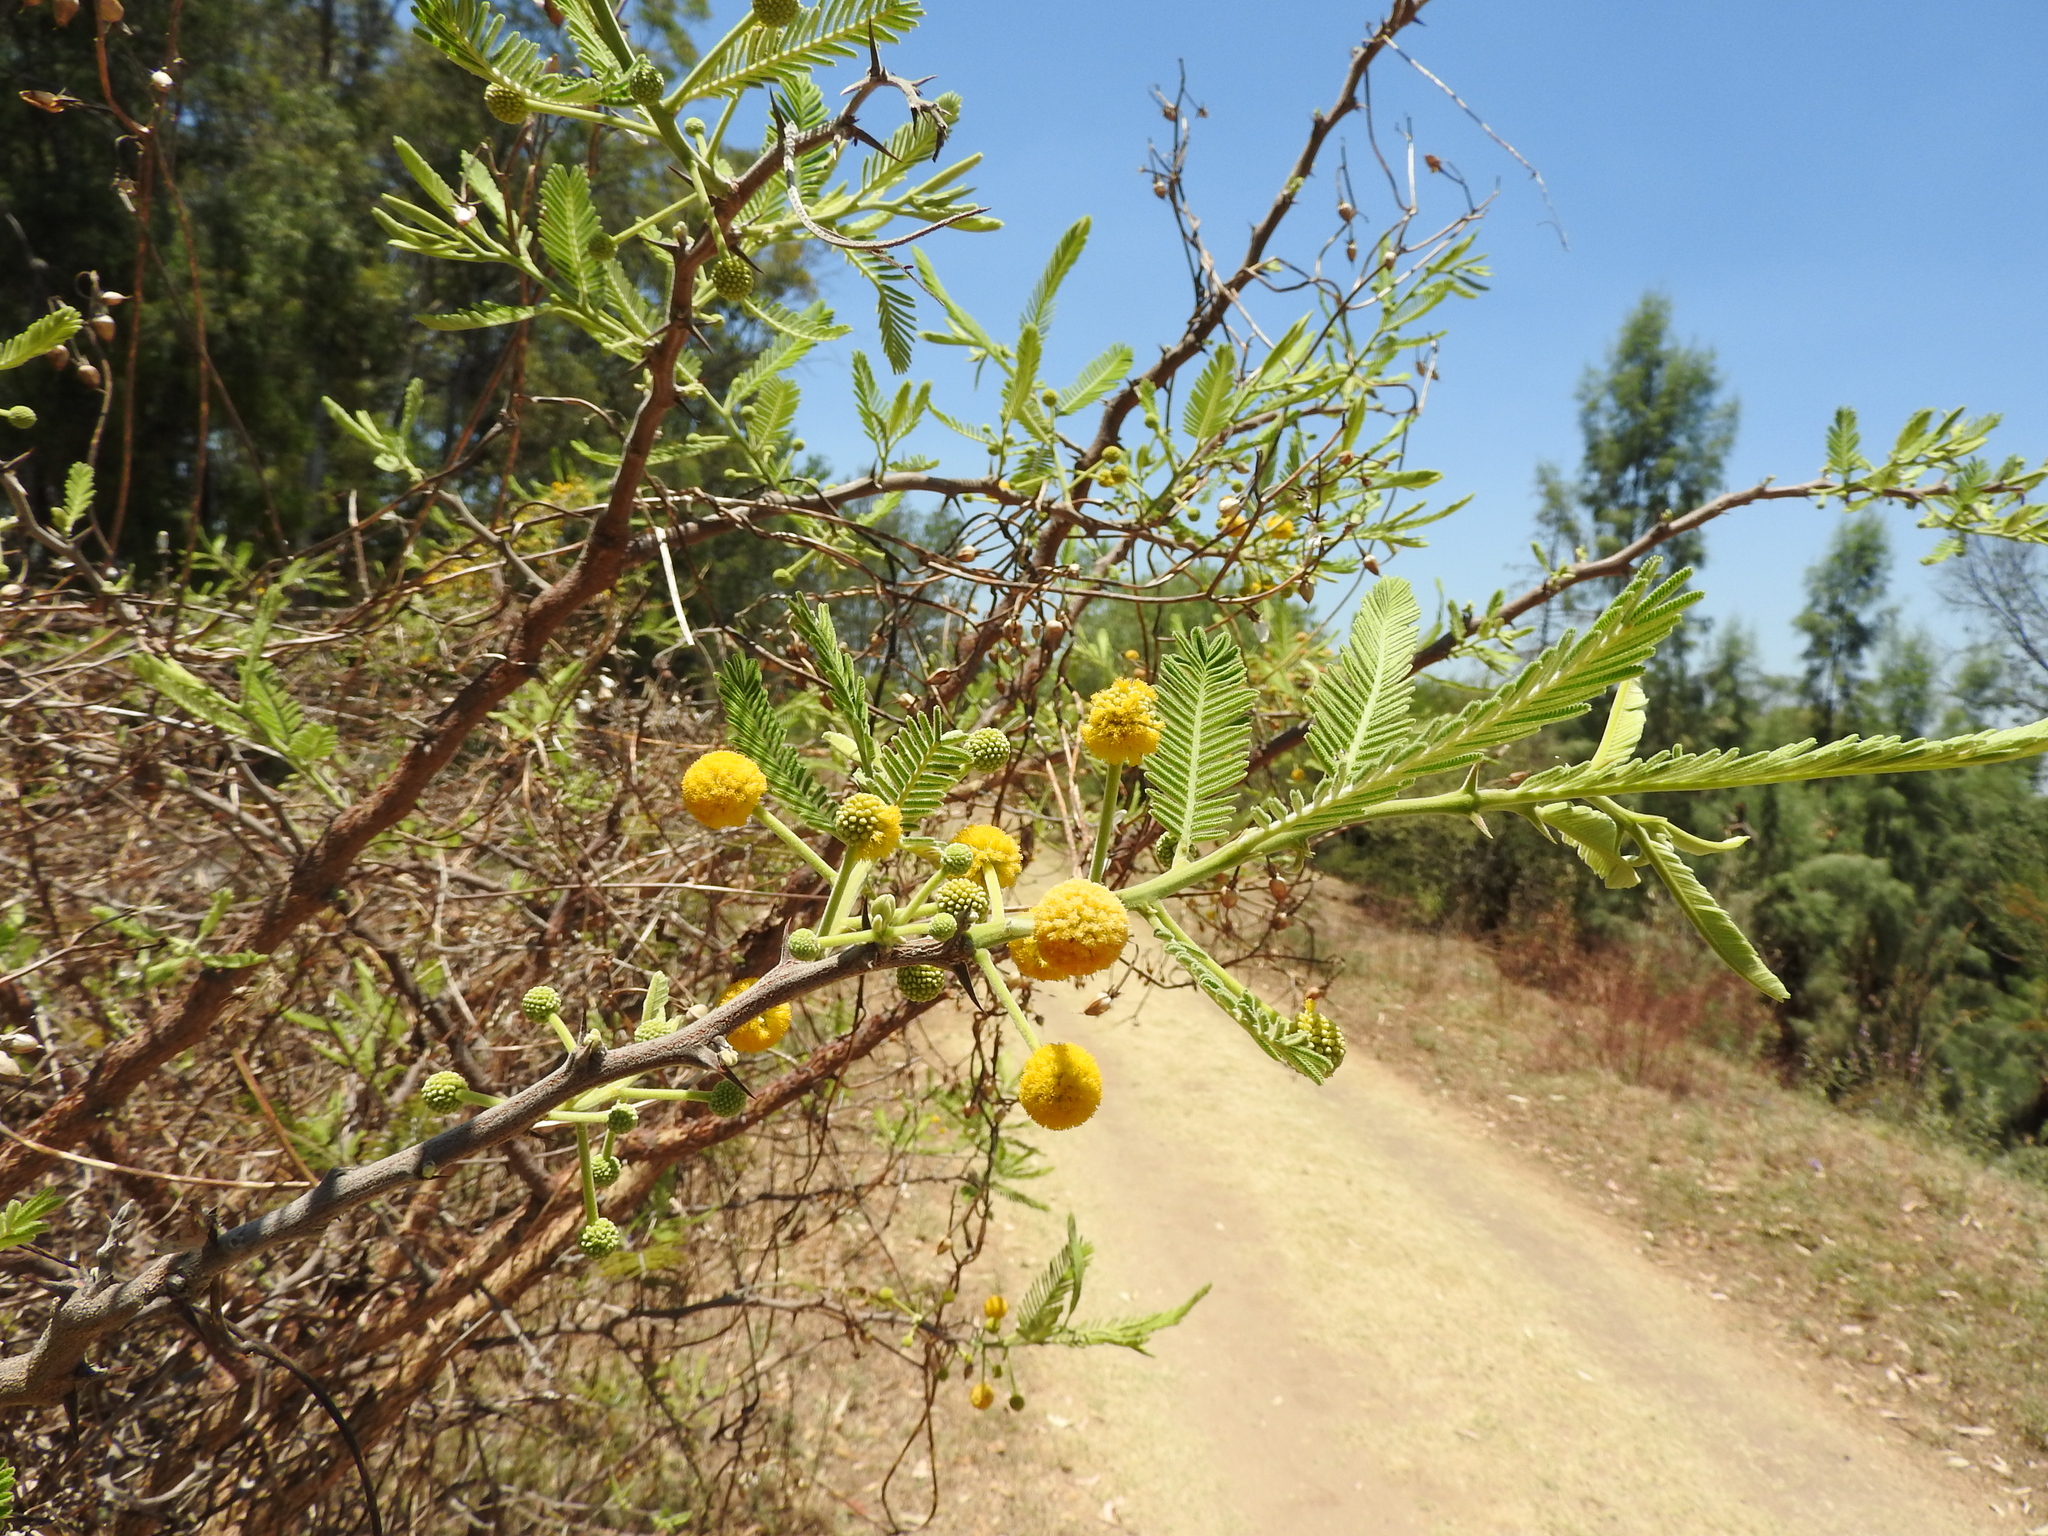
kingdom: Plantae
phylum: Tracheophyta
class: Magnoliopsida
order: Fabales
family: Fabaceae
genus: Vachellia
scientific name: Vachellia farnesiana
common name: Sweet acacia
